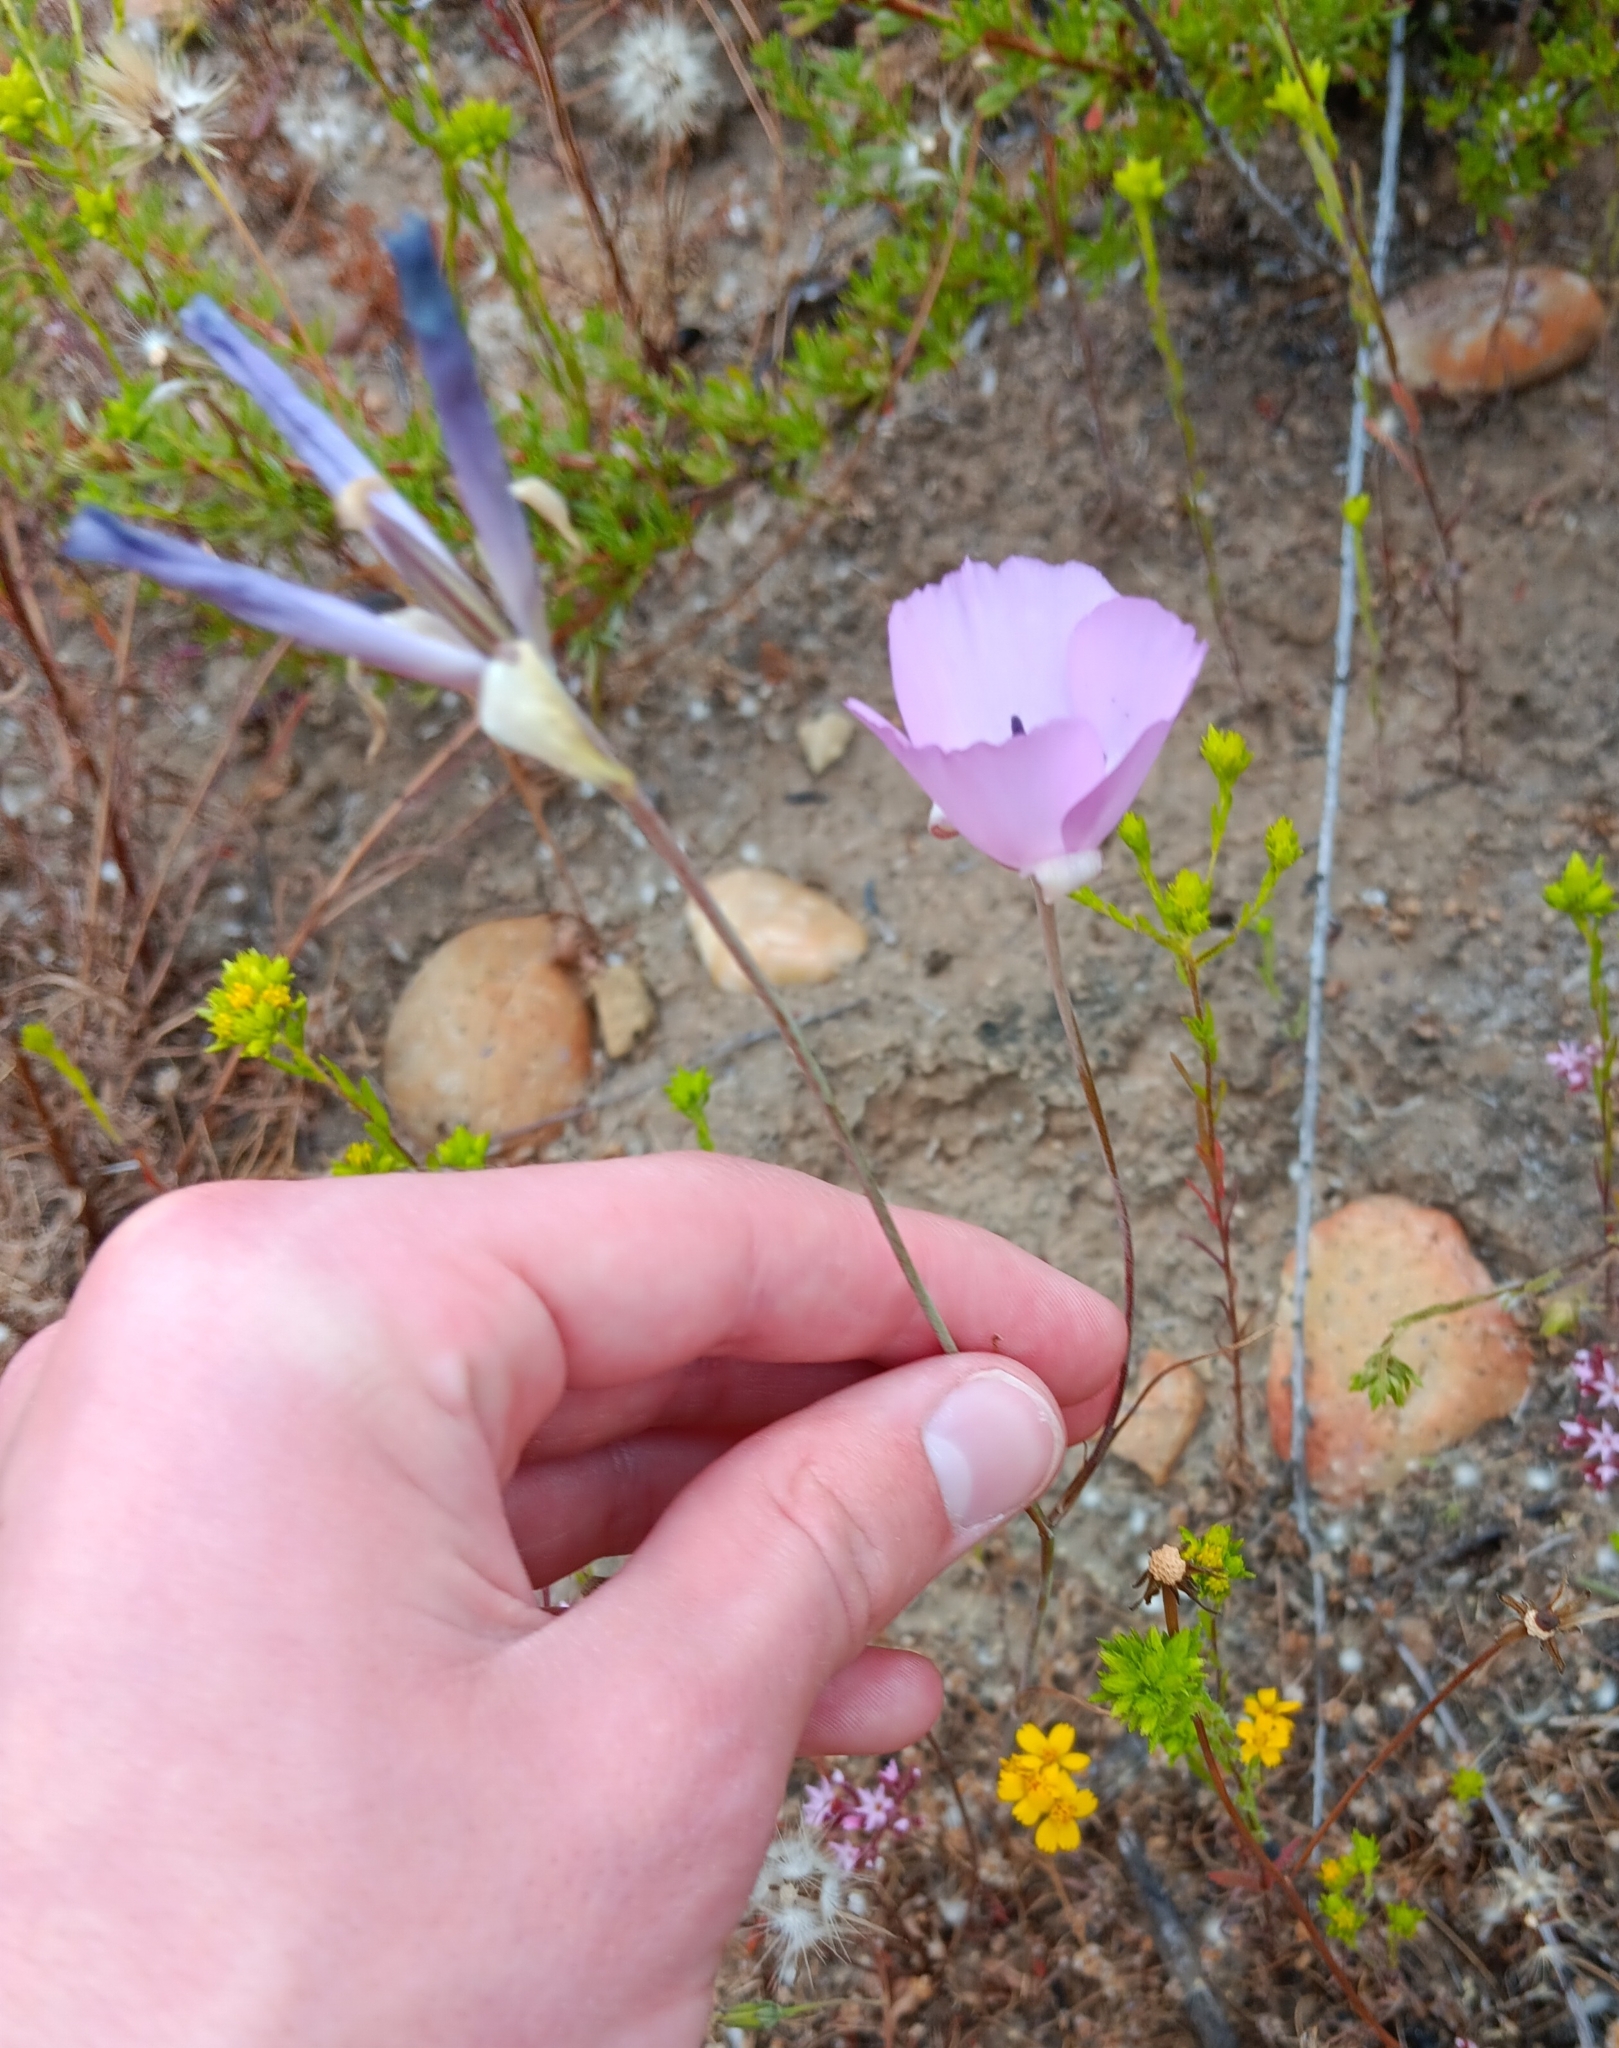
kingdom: Plantae
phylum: Tracheophyta
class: Liliopsida
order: Liliales
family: Liliaceae
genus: Calochortus
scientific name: Calochortus splendens
